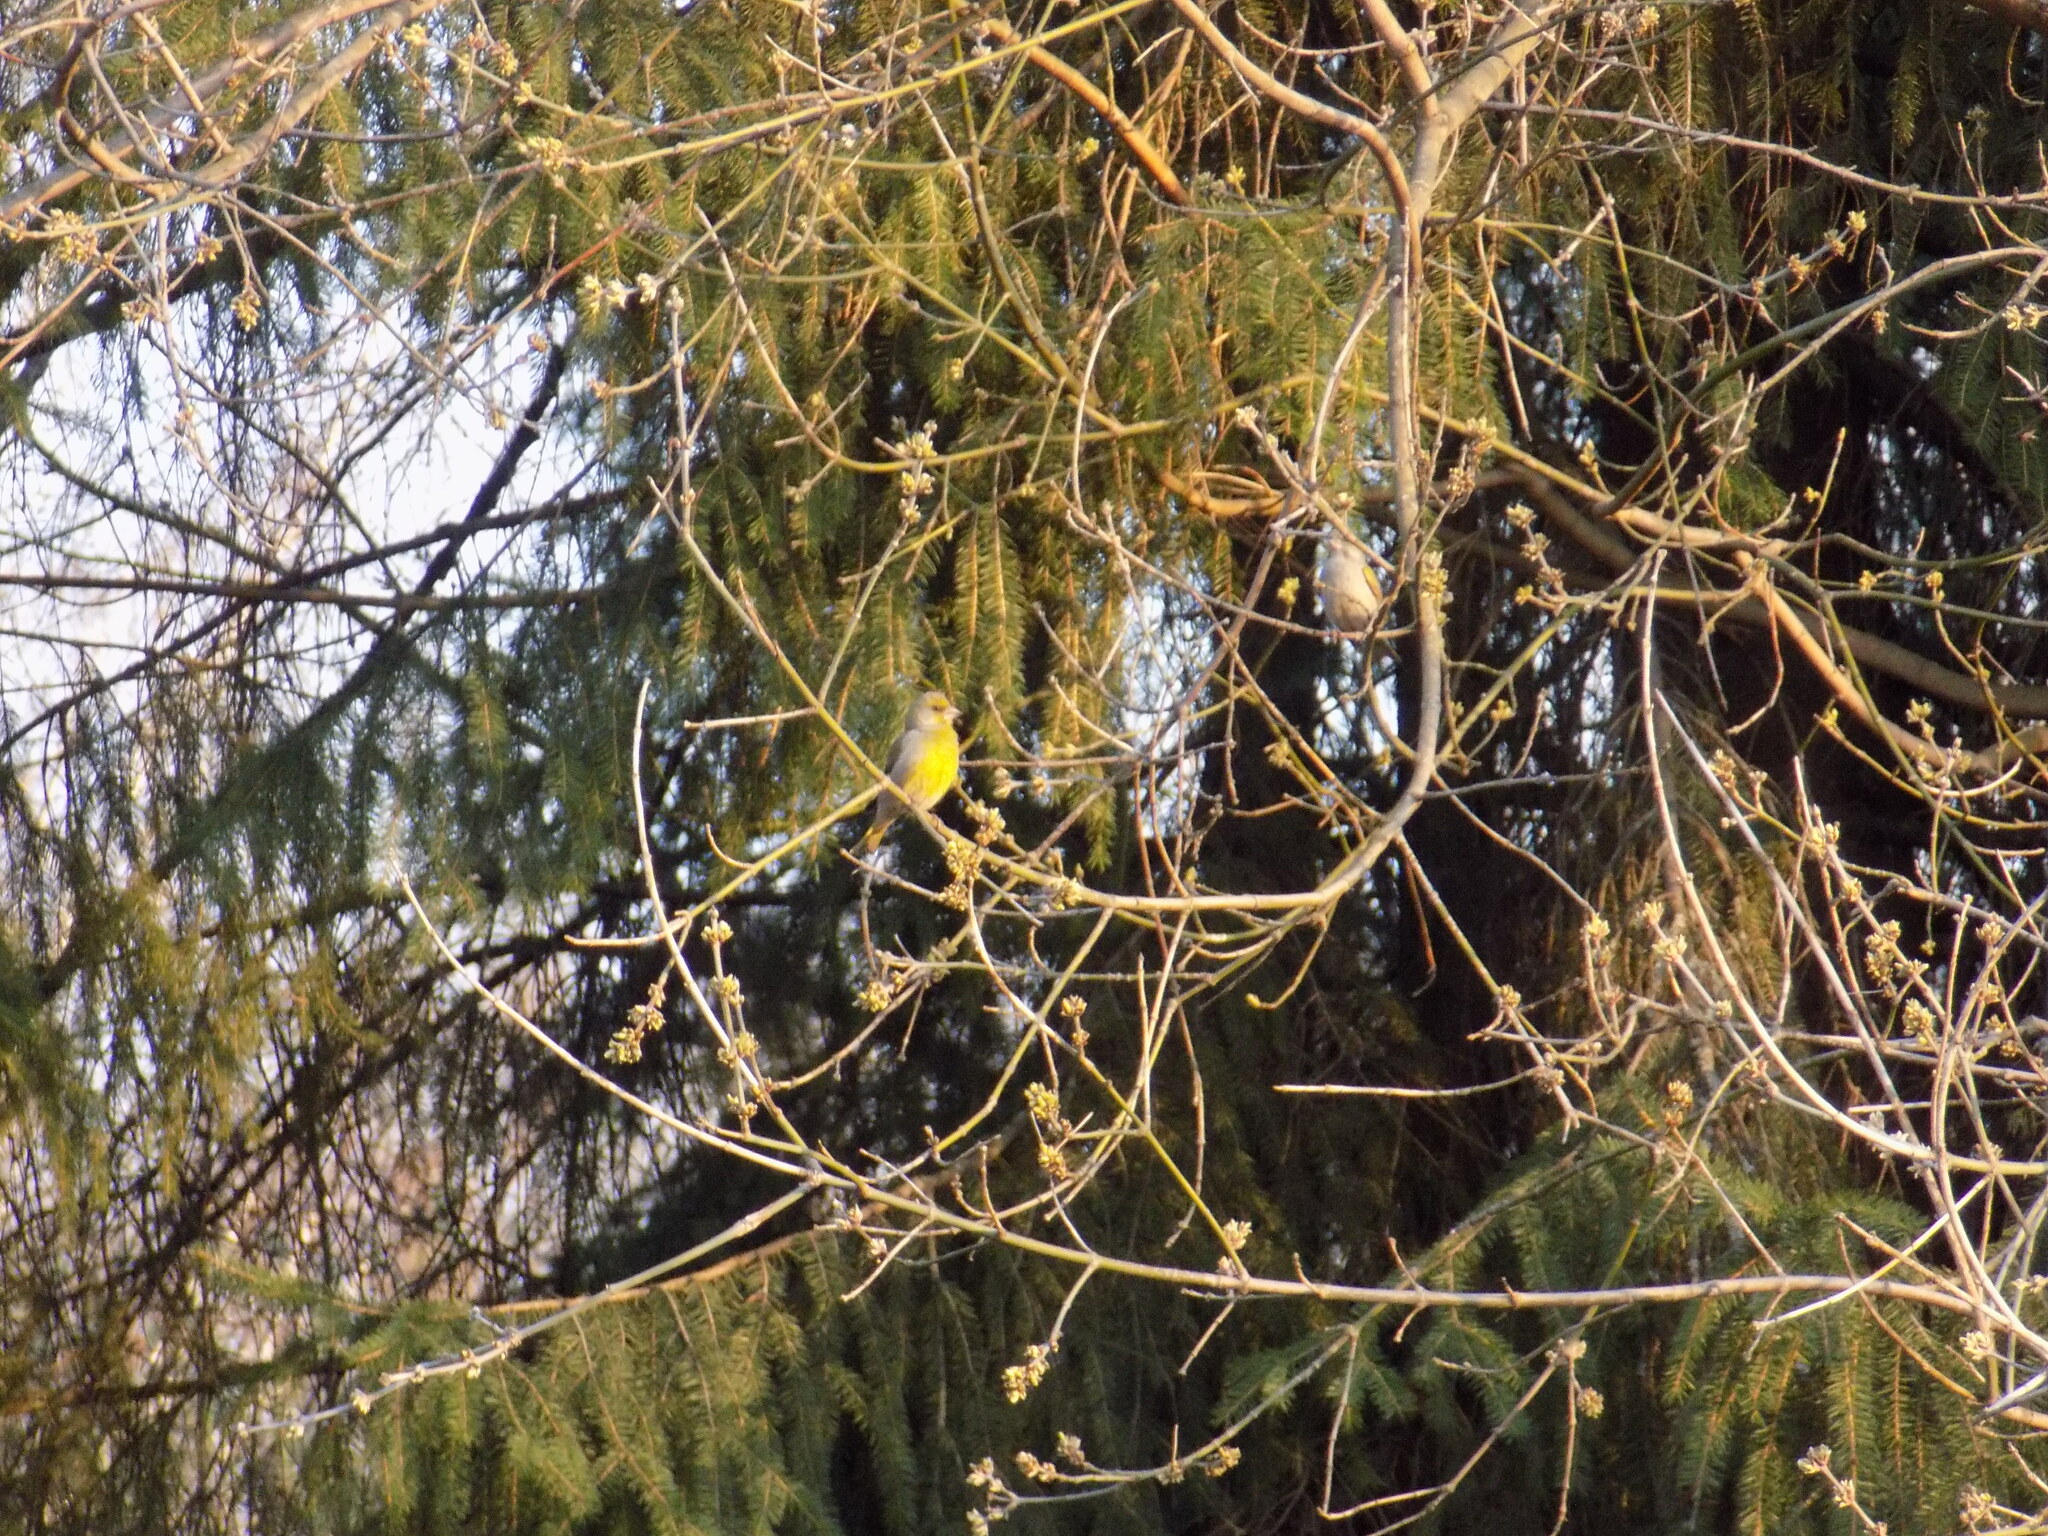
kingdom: Plantae
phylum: Tracheophyta
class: Liliopsida
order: Poales
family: Poaceae
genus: Chloris
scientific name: Chloris chloris
